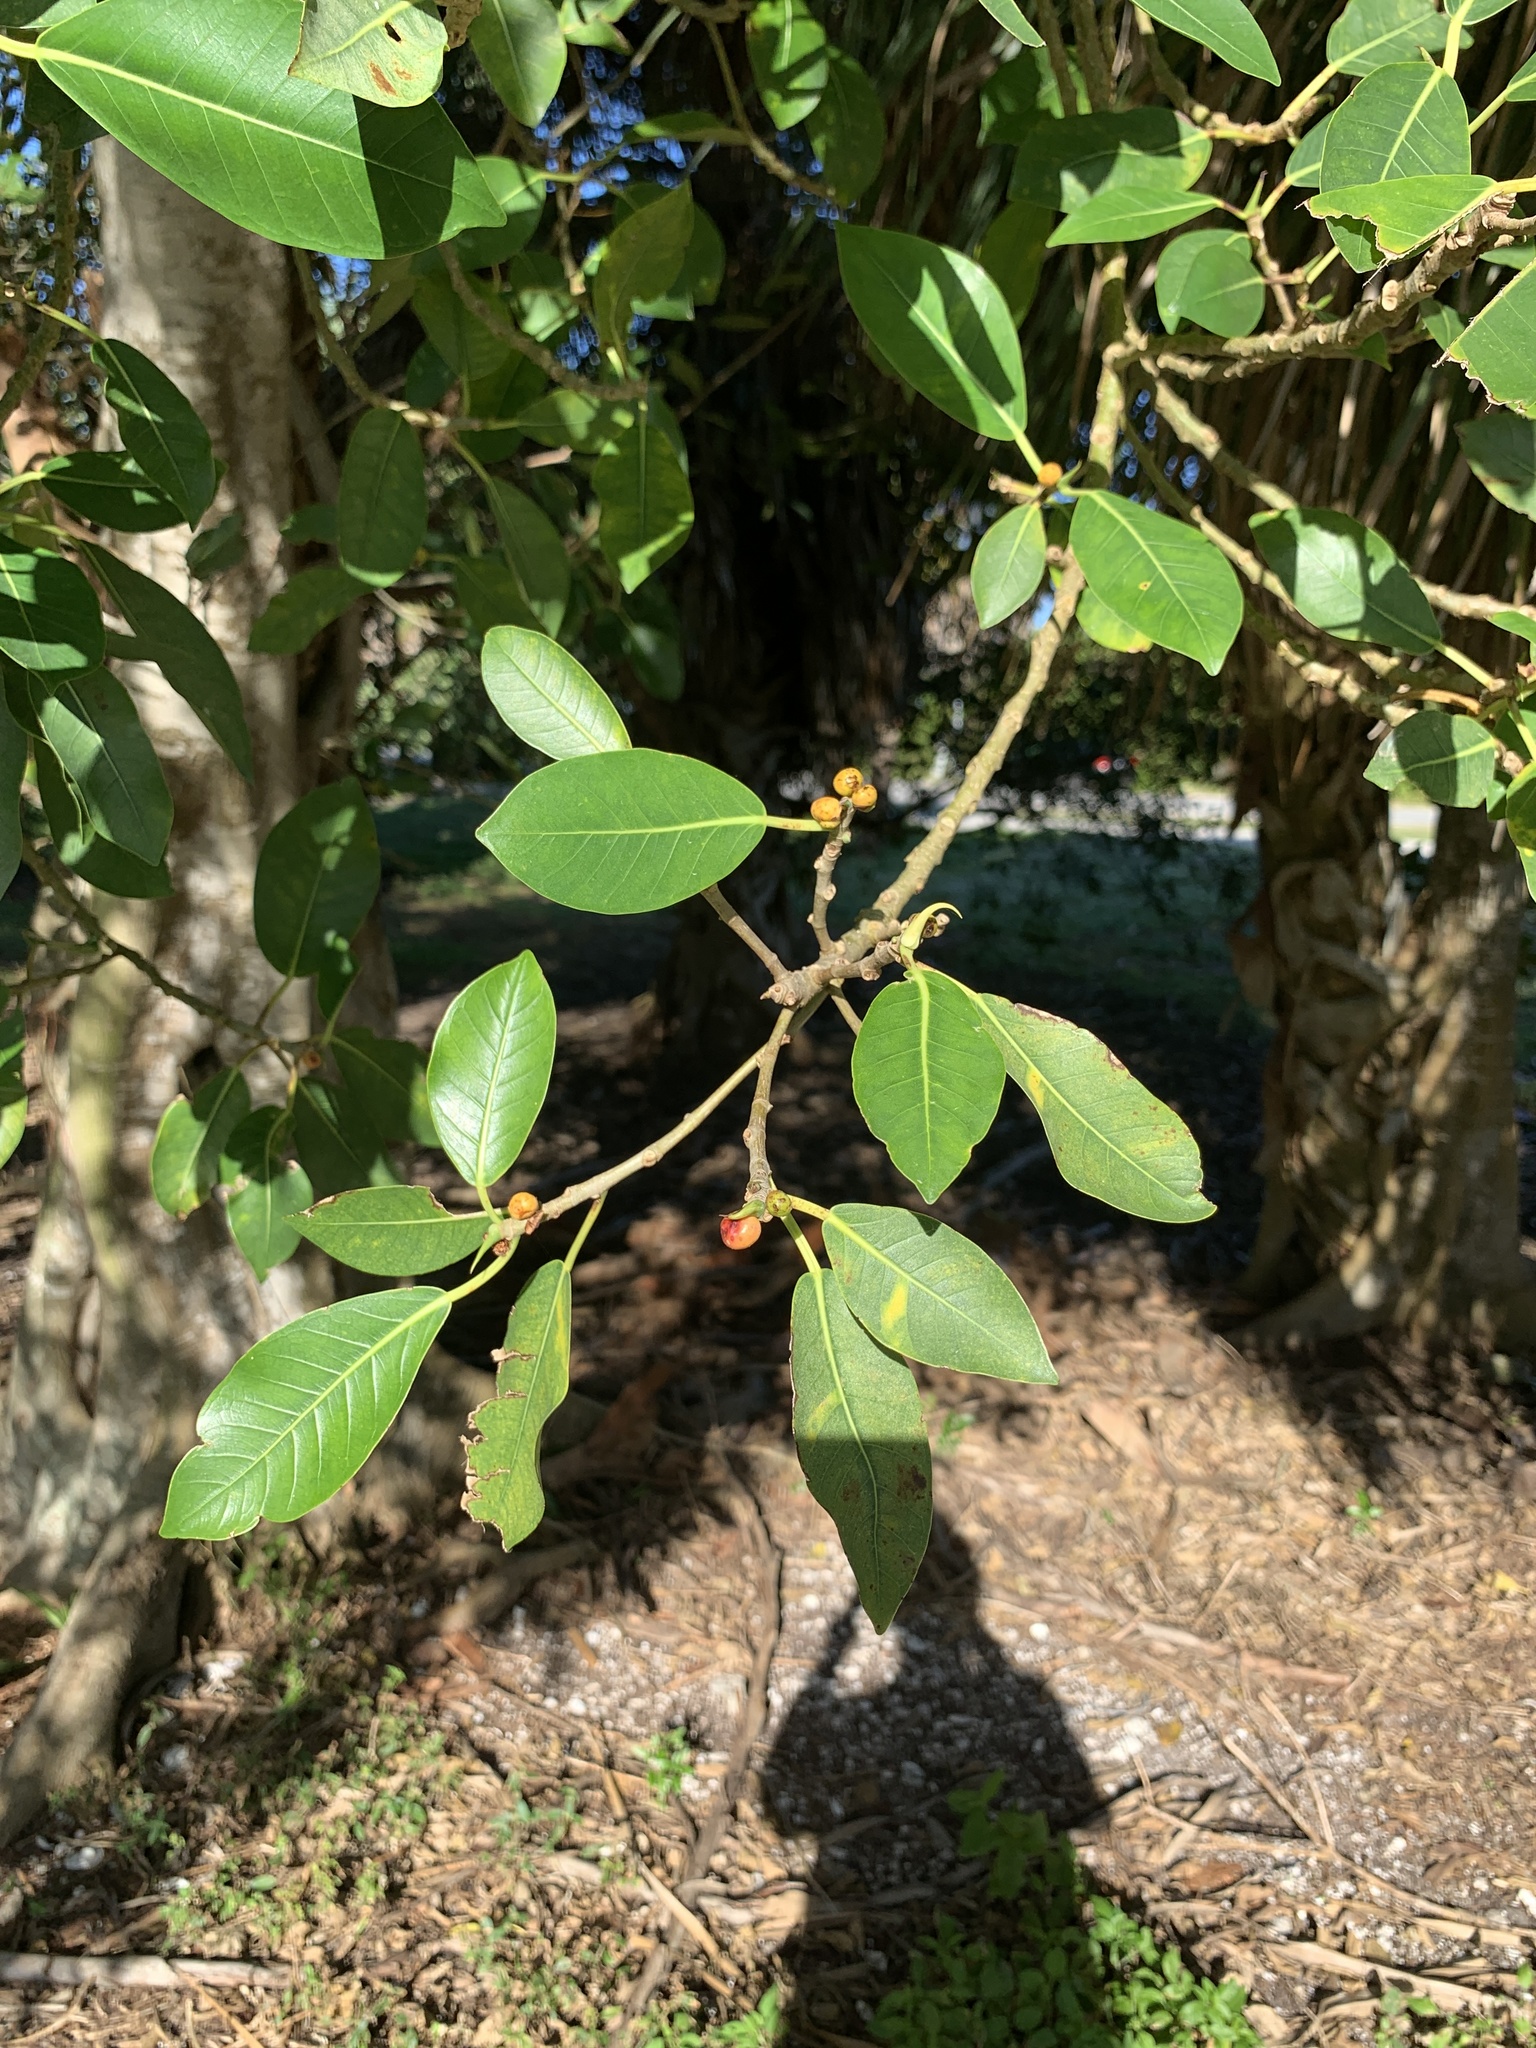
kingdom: Plantae
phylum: Tracheophyta
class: Magnoliopsida
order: Rosales
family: Moraceae
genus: Ficus
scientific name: Ficus aurea
